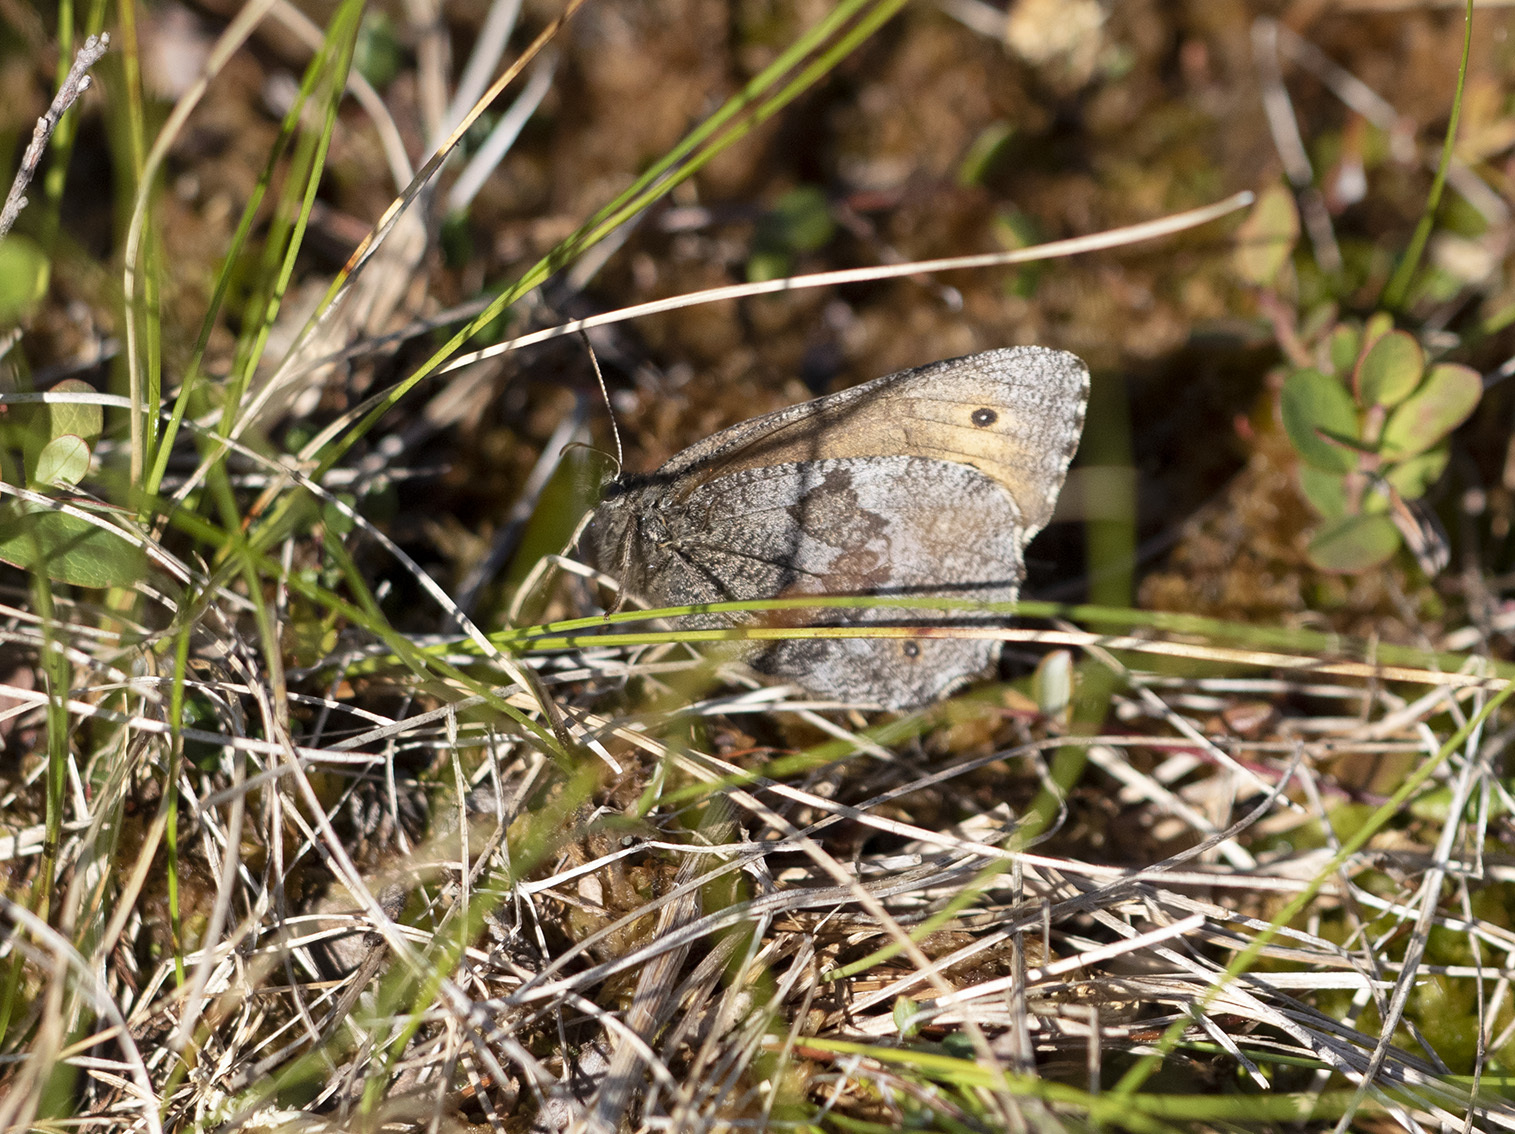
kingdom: Animalia
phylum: Arthropoda
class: Insecta
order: Lepidoptera
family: Nymphalidae
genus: Oeneis
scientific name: Oeneis jutta
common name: Baltic grayling
